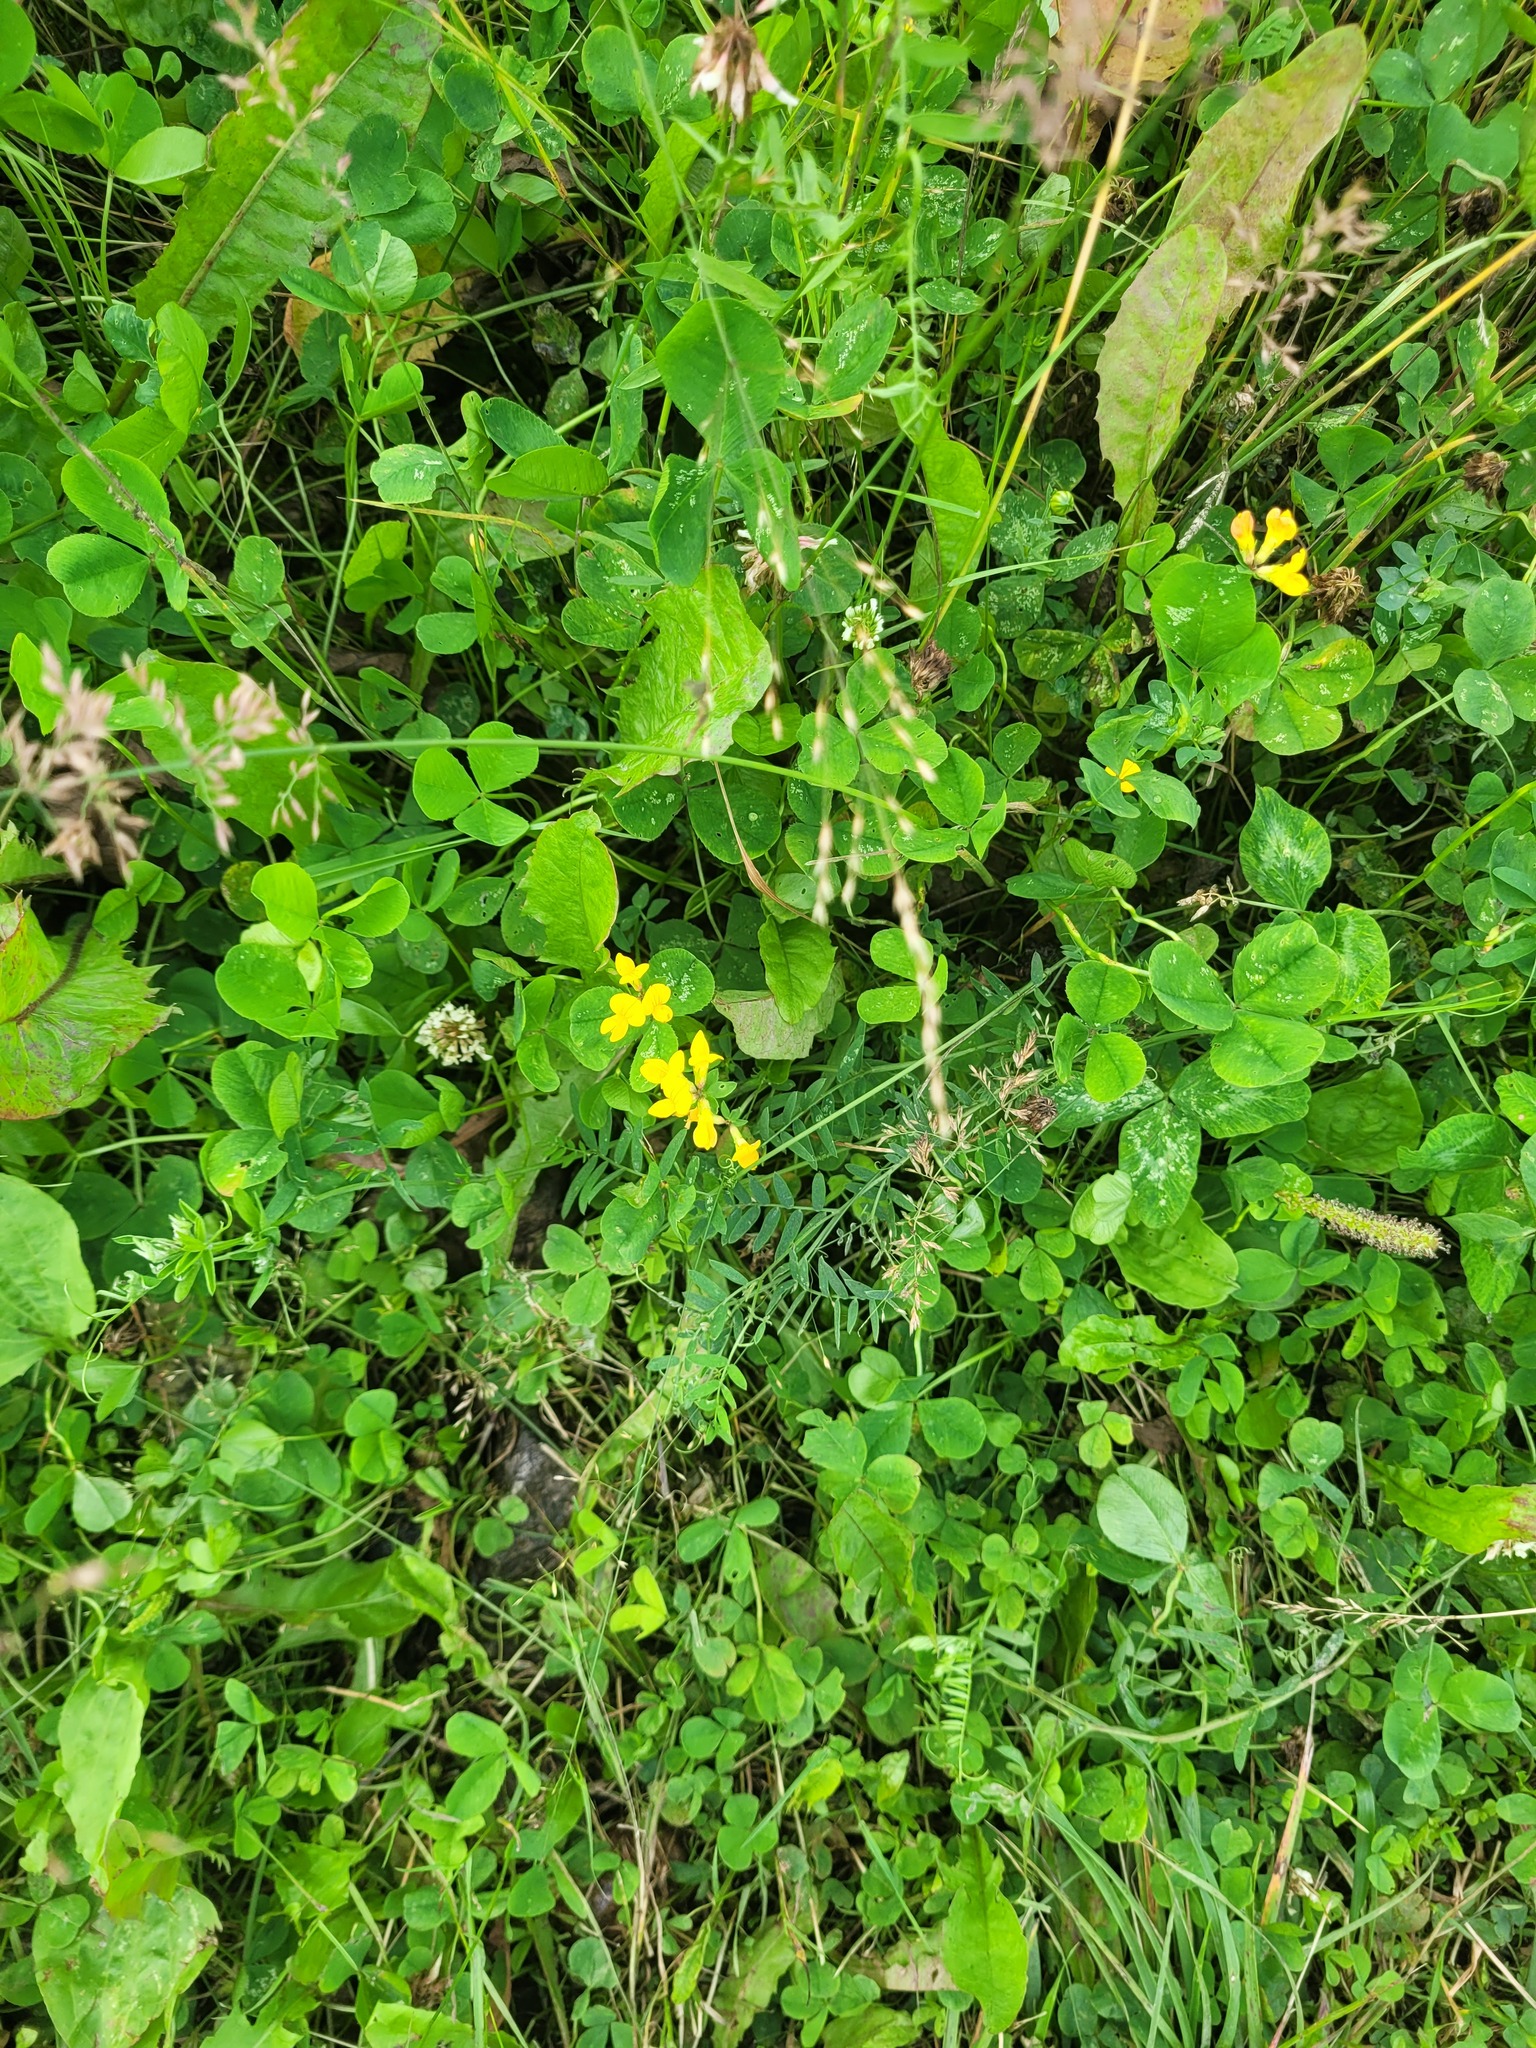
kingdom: Plantae
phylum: Tracheophyta
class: Magnoliopsida
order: Fabales
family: Fabaceae
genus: Lotus
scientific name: Lotus corniculatus
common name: Common bird's-foot-trefoil
